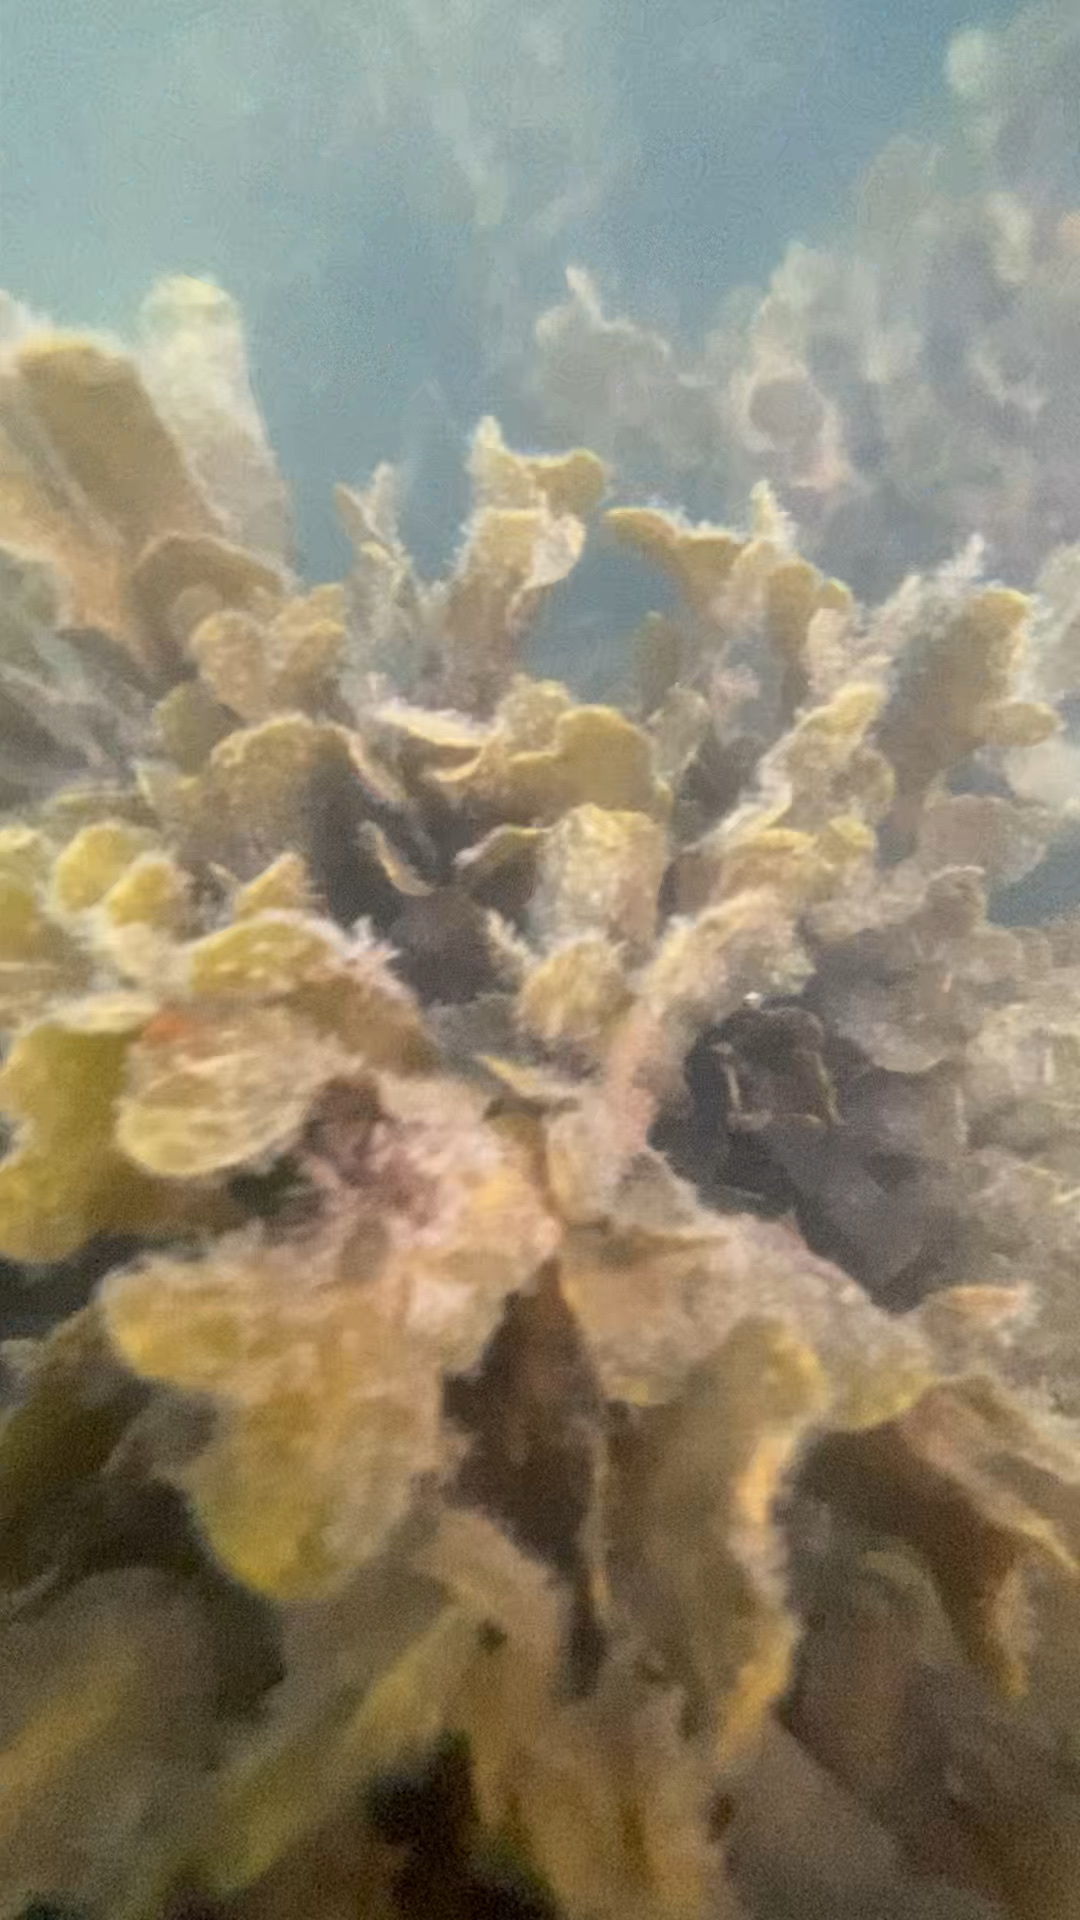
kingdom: Chromista
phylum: Ochrophyta
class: Phaeophyceae
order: Fucales
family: Fucaceae
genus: Fucus
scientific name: Fucus vesiculosus
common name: Bladder wrack
